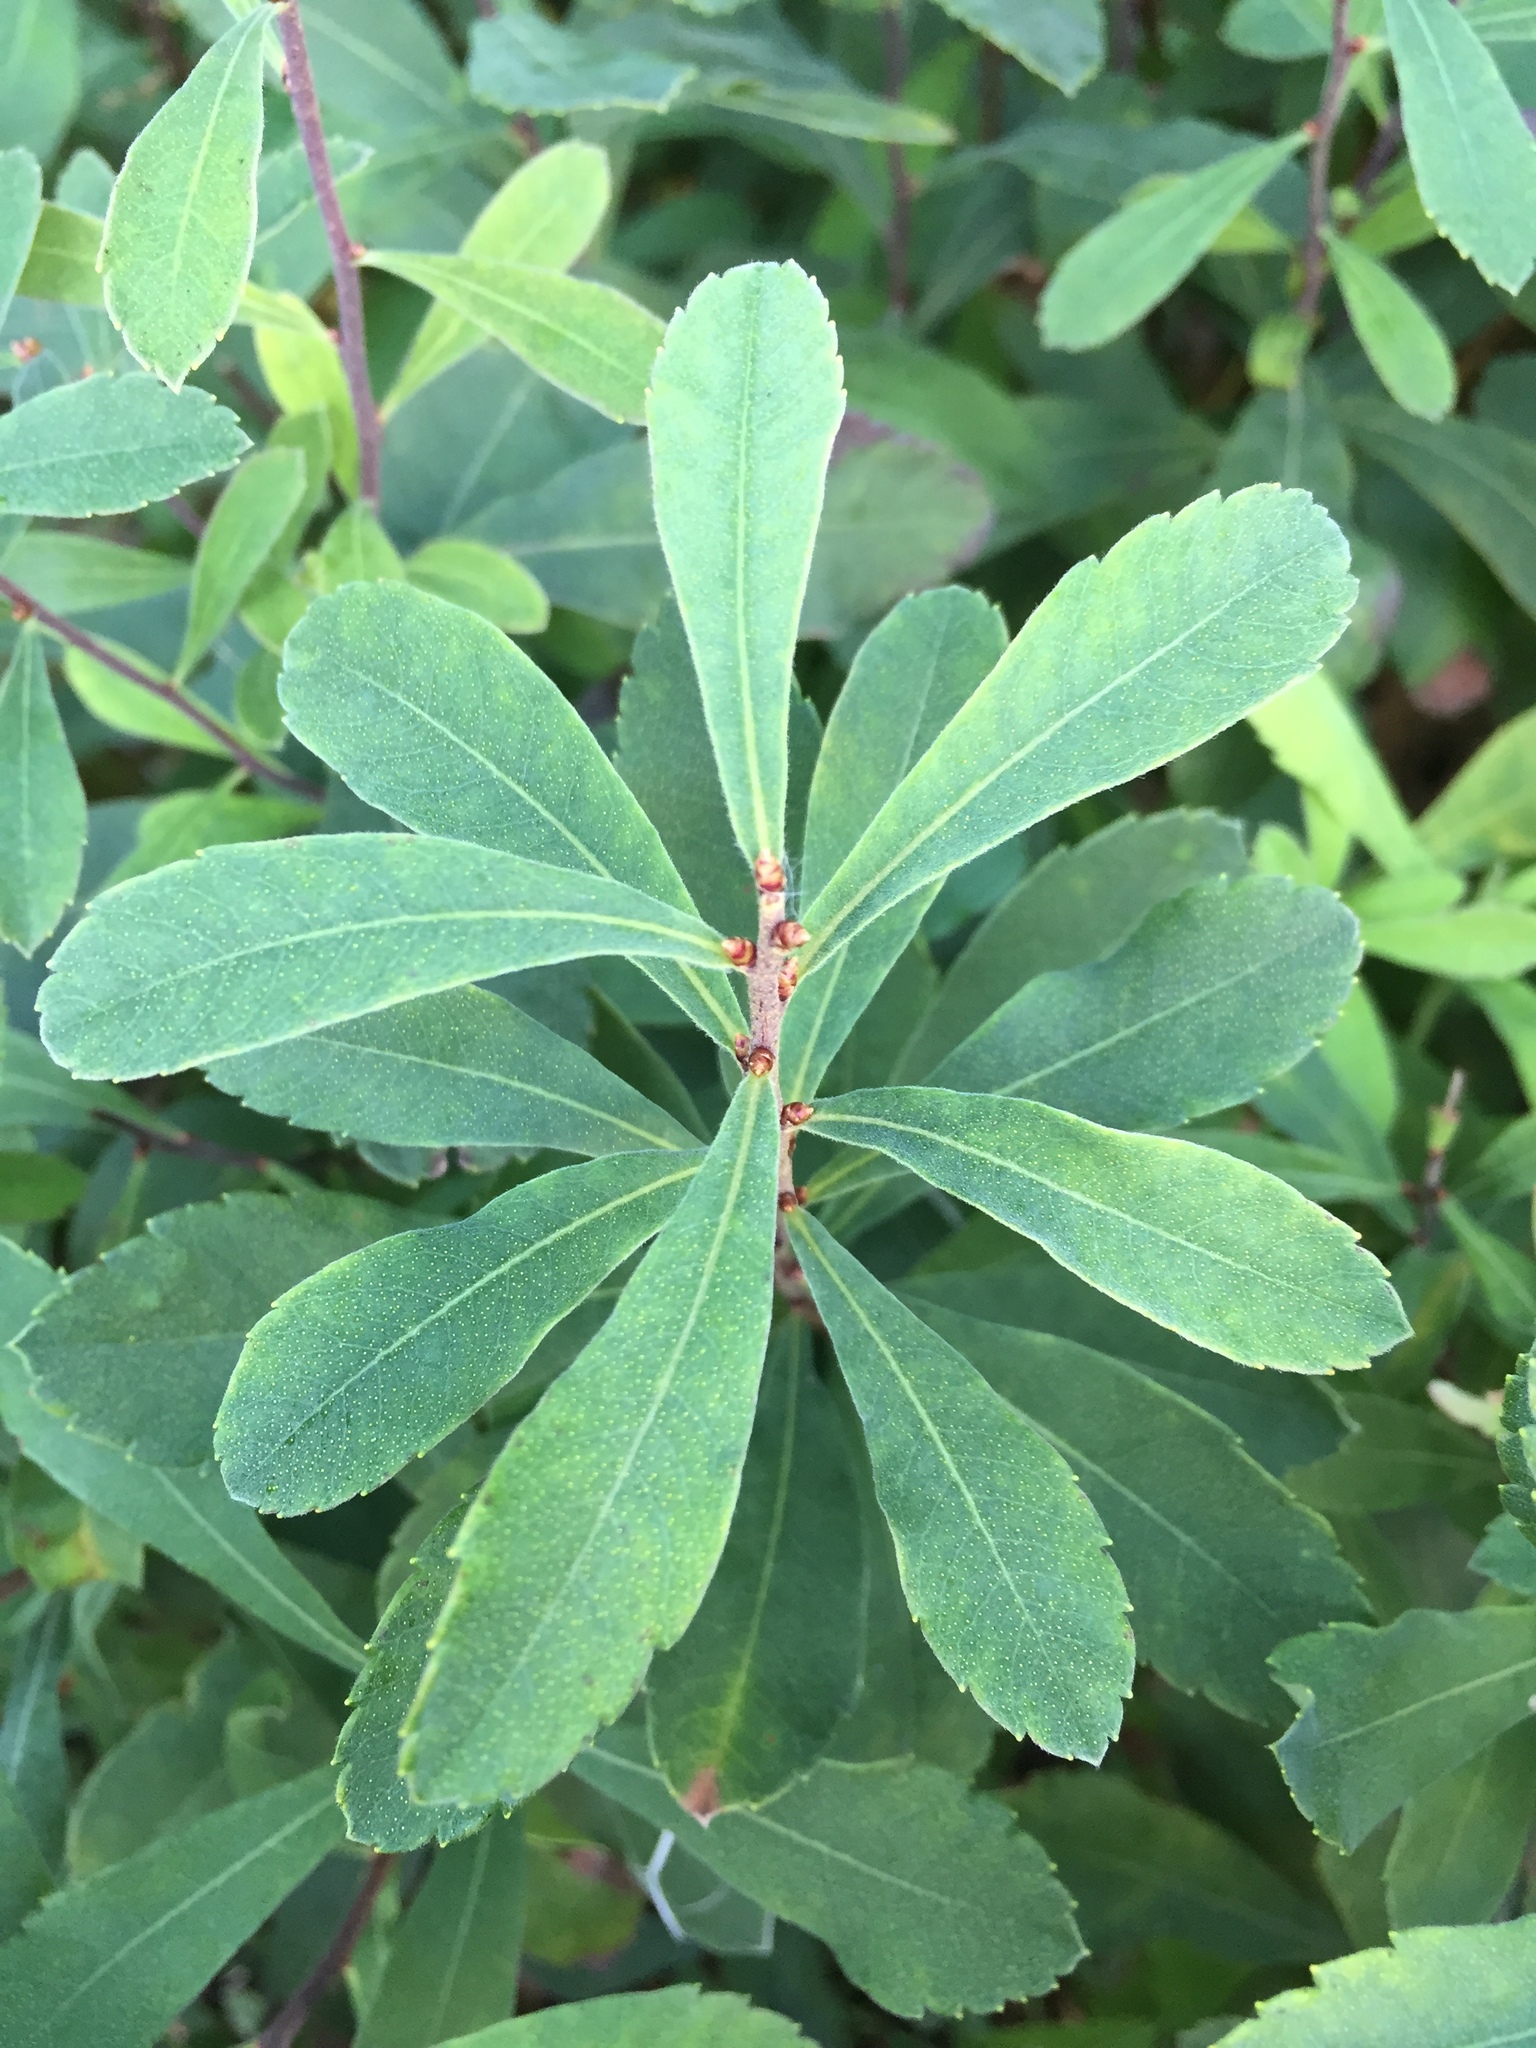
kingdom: Plantae
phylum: Tracheophyta
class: Magnoliopsida
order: Fagales
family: Myricaceae
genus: Myrica
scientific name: Myrica gale
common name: Sweet gale
